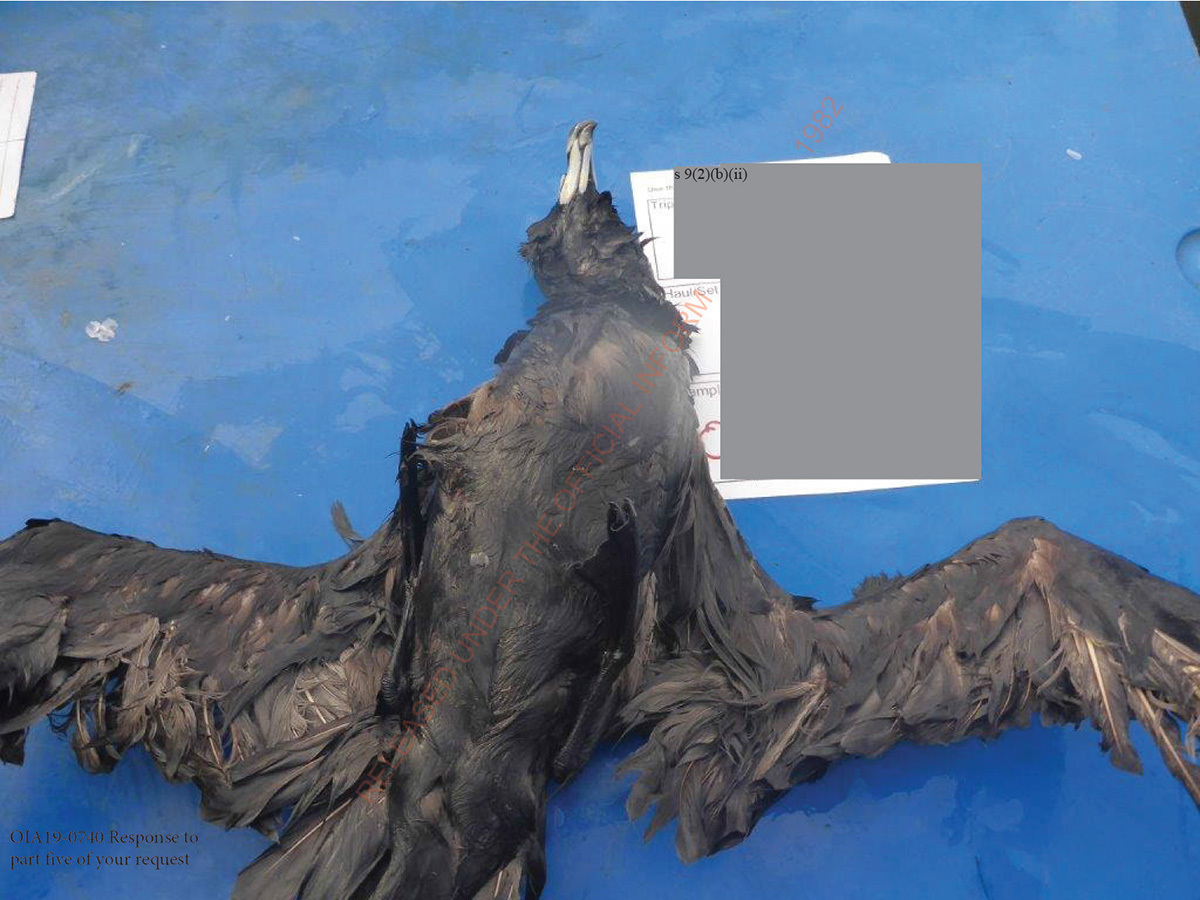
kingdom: Animalia
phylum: Chordata
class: Aves
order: Procellariiformes
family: Procellariidae
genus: Procellaria
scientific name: Procellaria parkinsoni
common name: Black petrel
